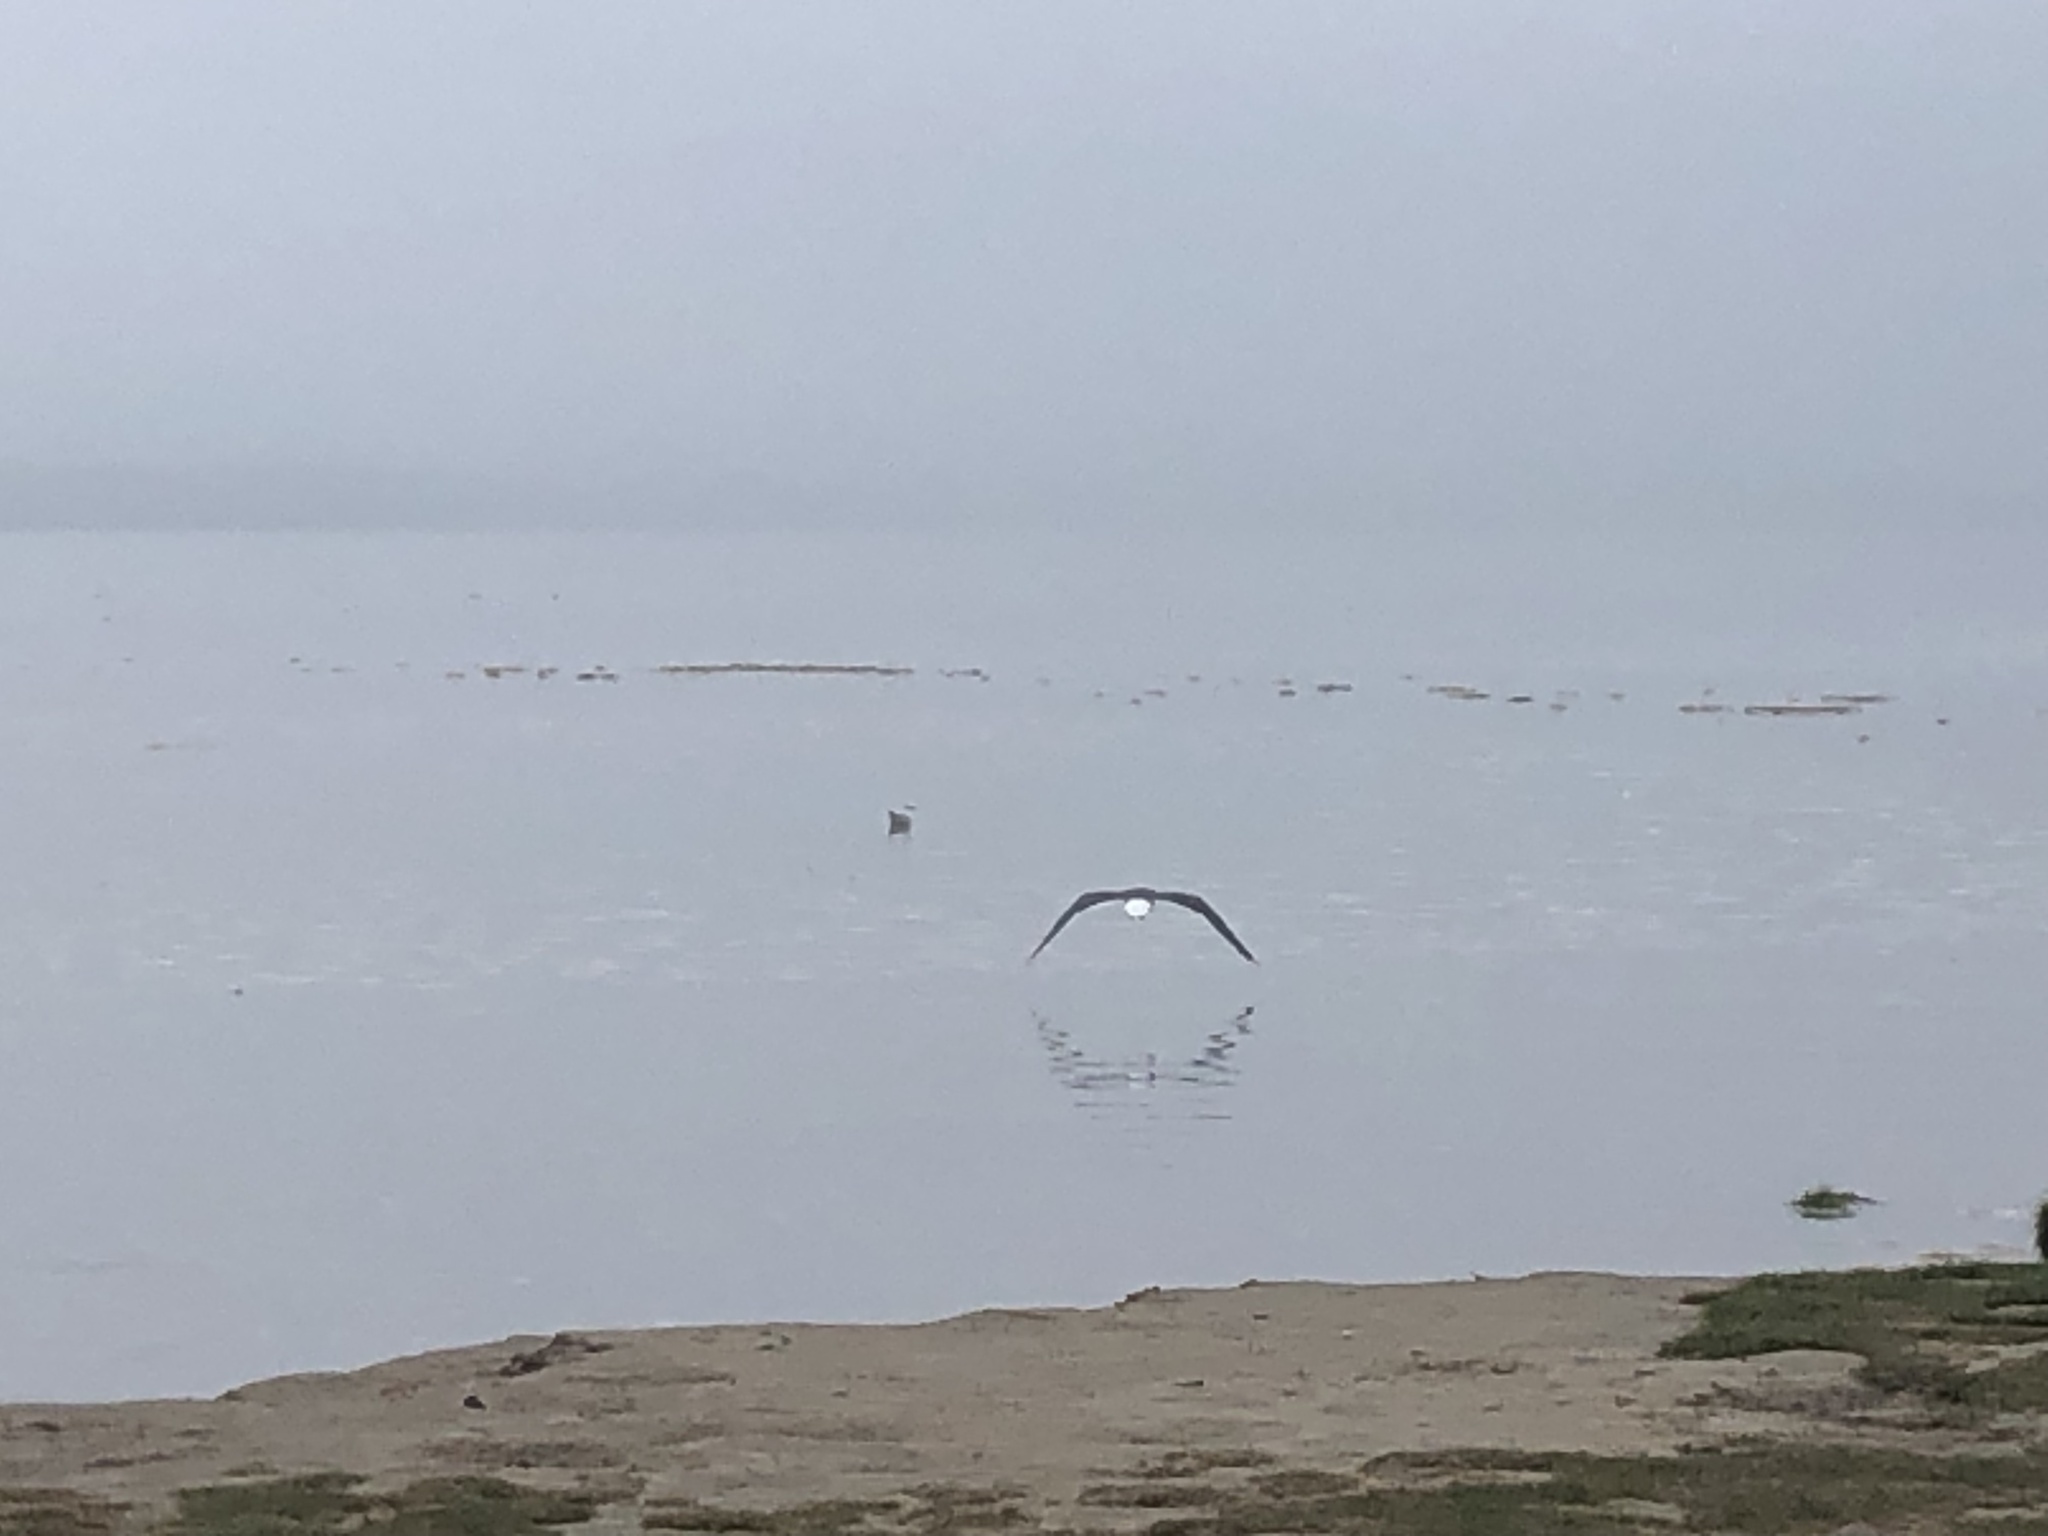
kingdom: Animalia
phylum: Chordata
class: Aves
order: Charadriiformes
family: Laridae
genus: Larus
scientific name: Larus marinus
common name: Great black-backed gull
